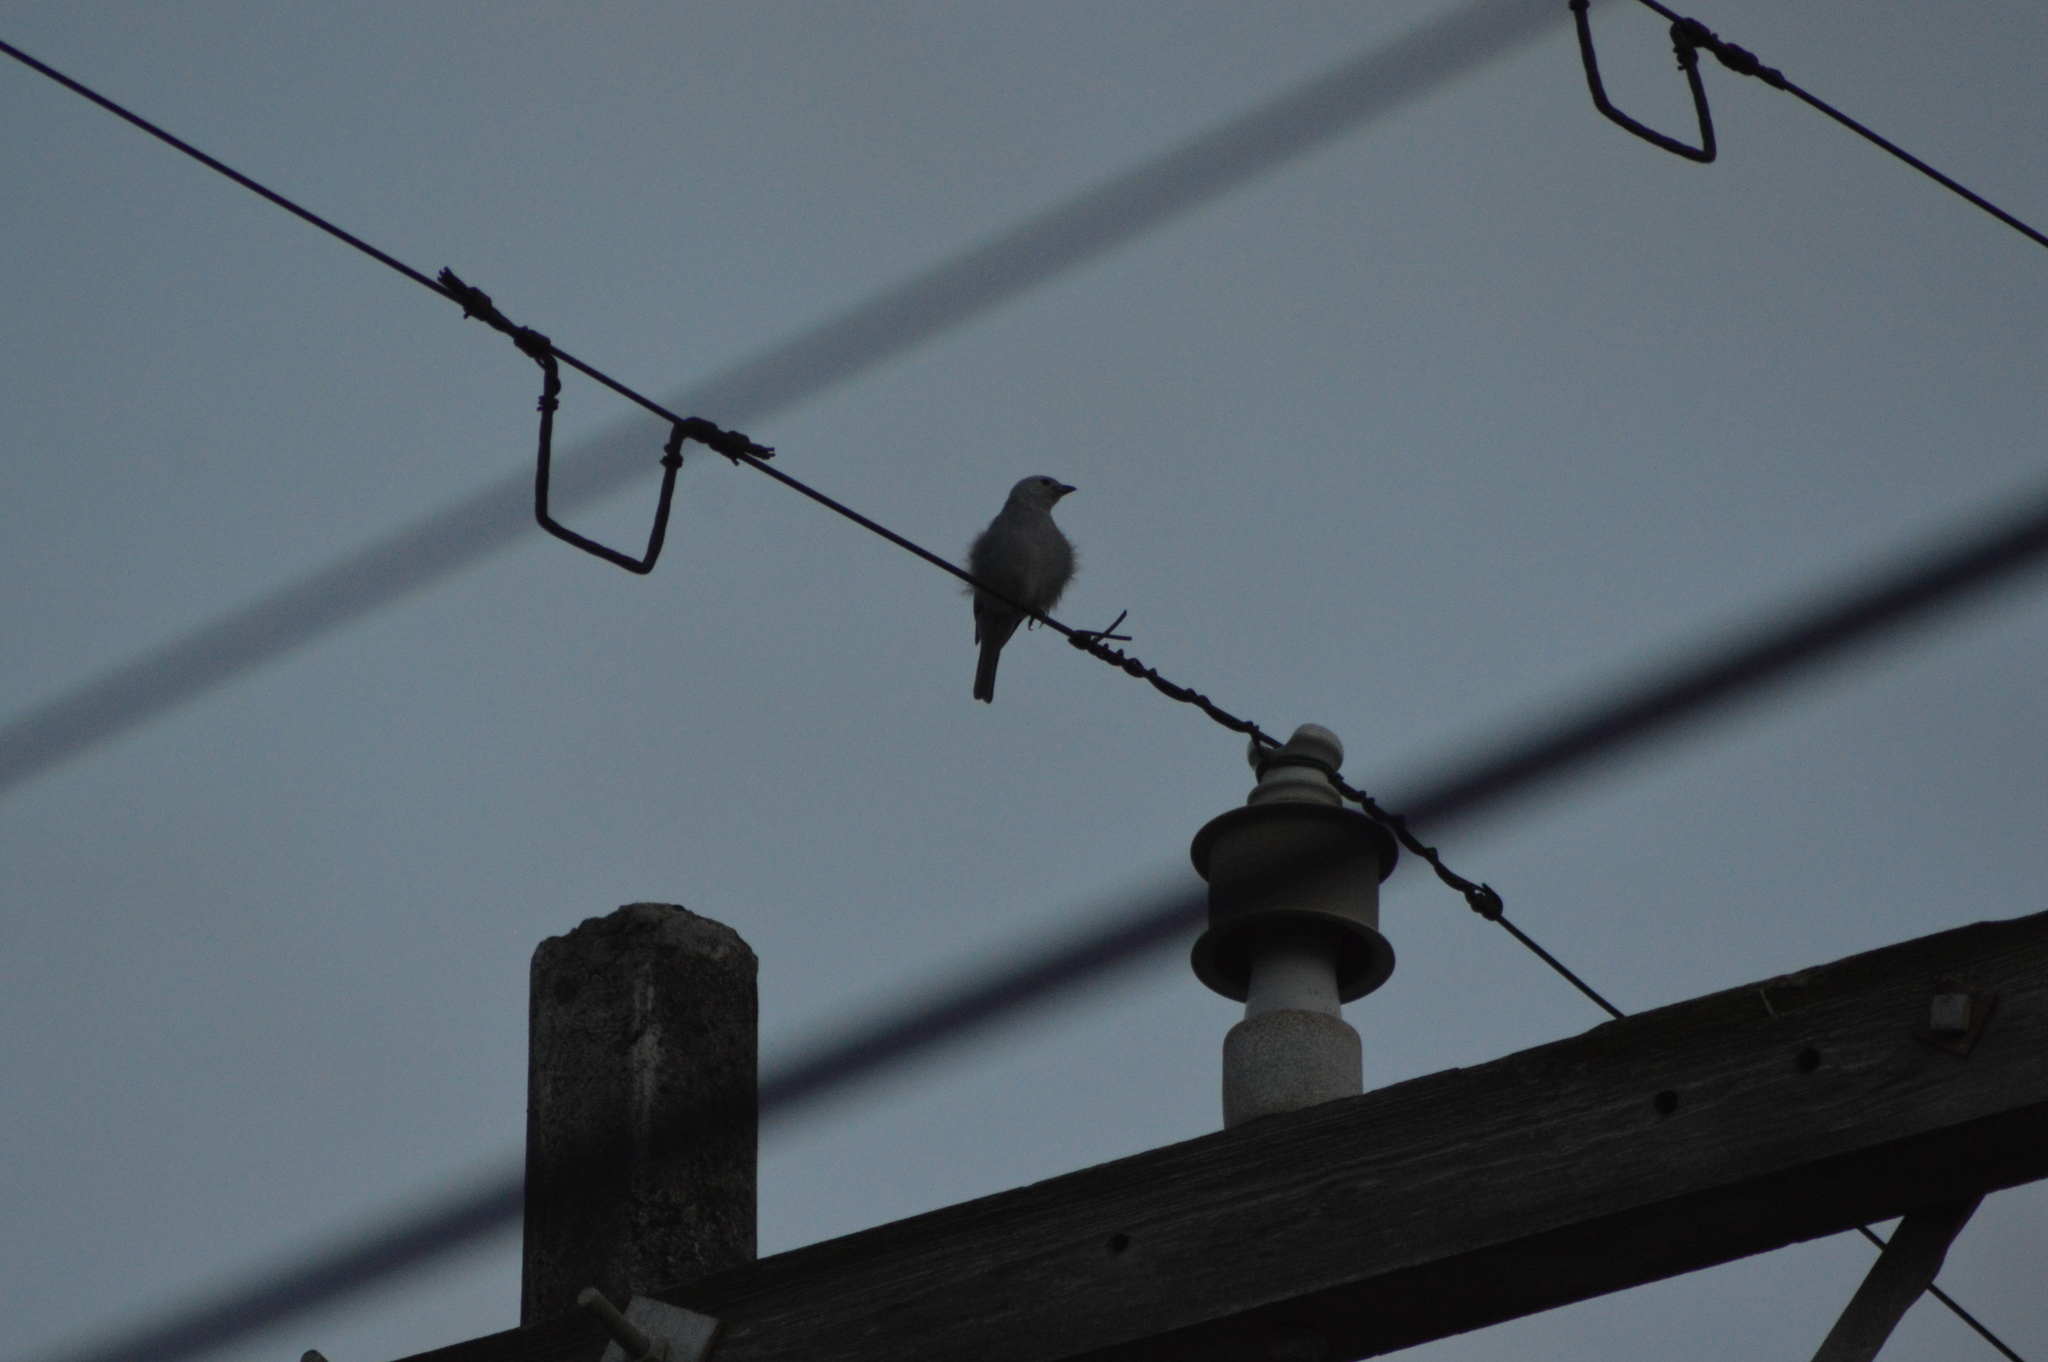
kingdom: Animalia
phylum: Chordata
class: Aves
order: Passeriformes
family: Thraupidae
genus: Thraupis
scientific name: Thraupis episcopus
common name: Blue-grey tanager
